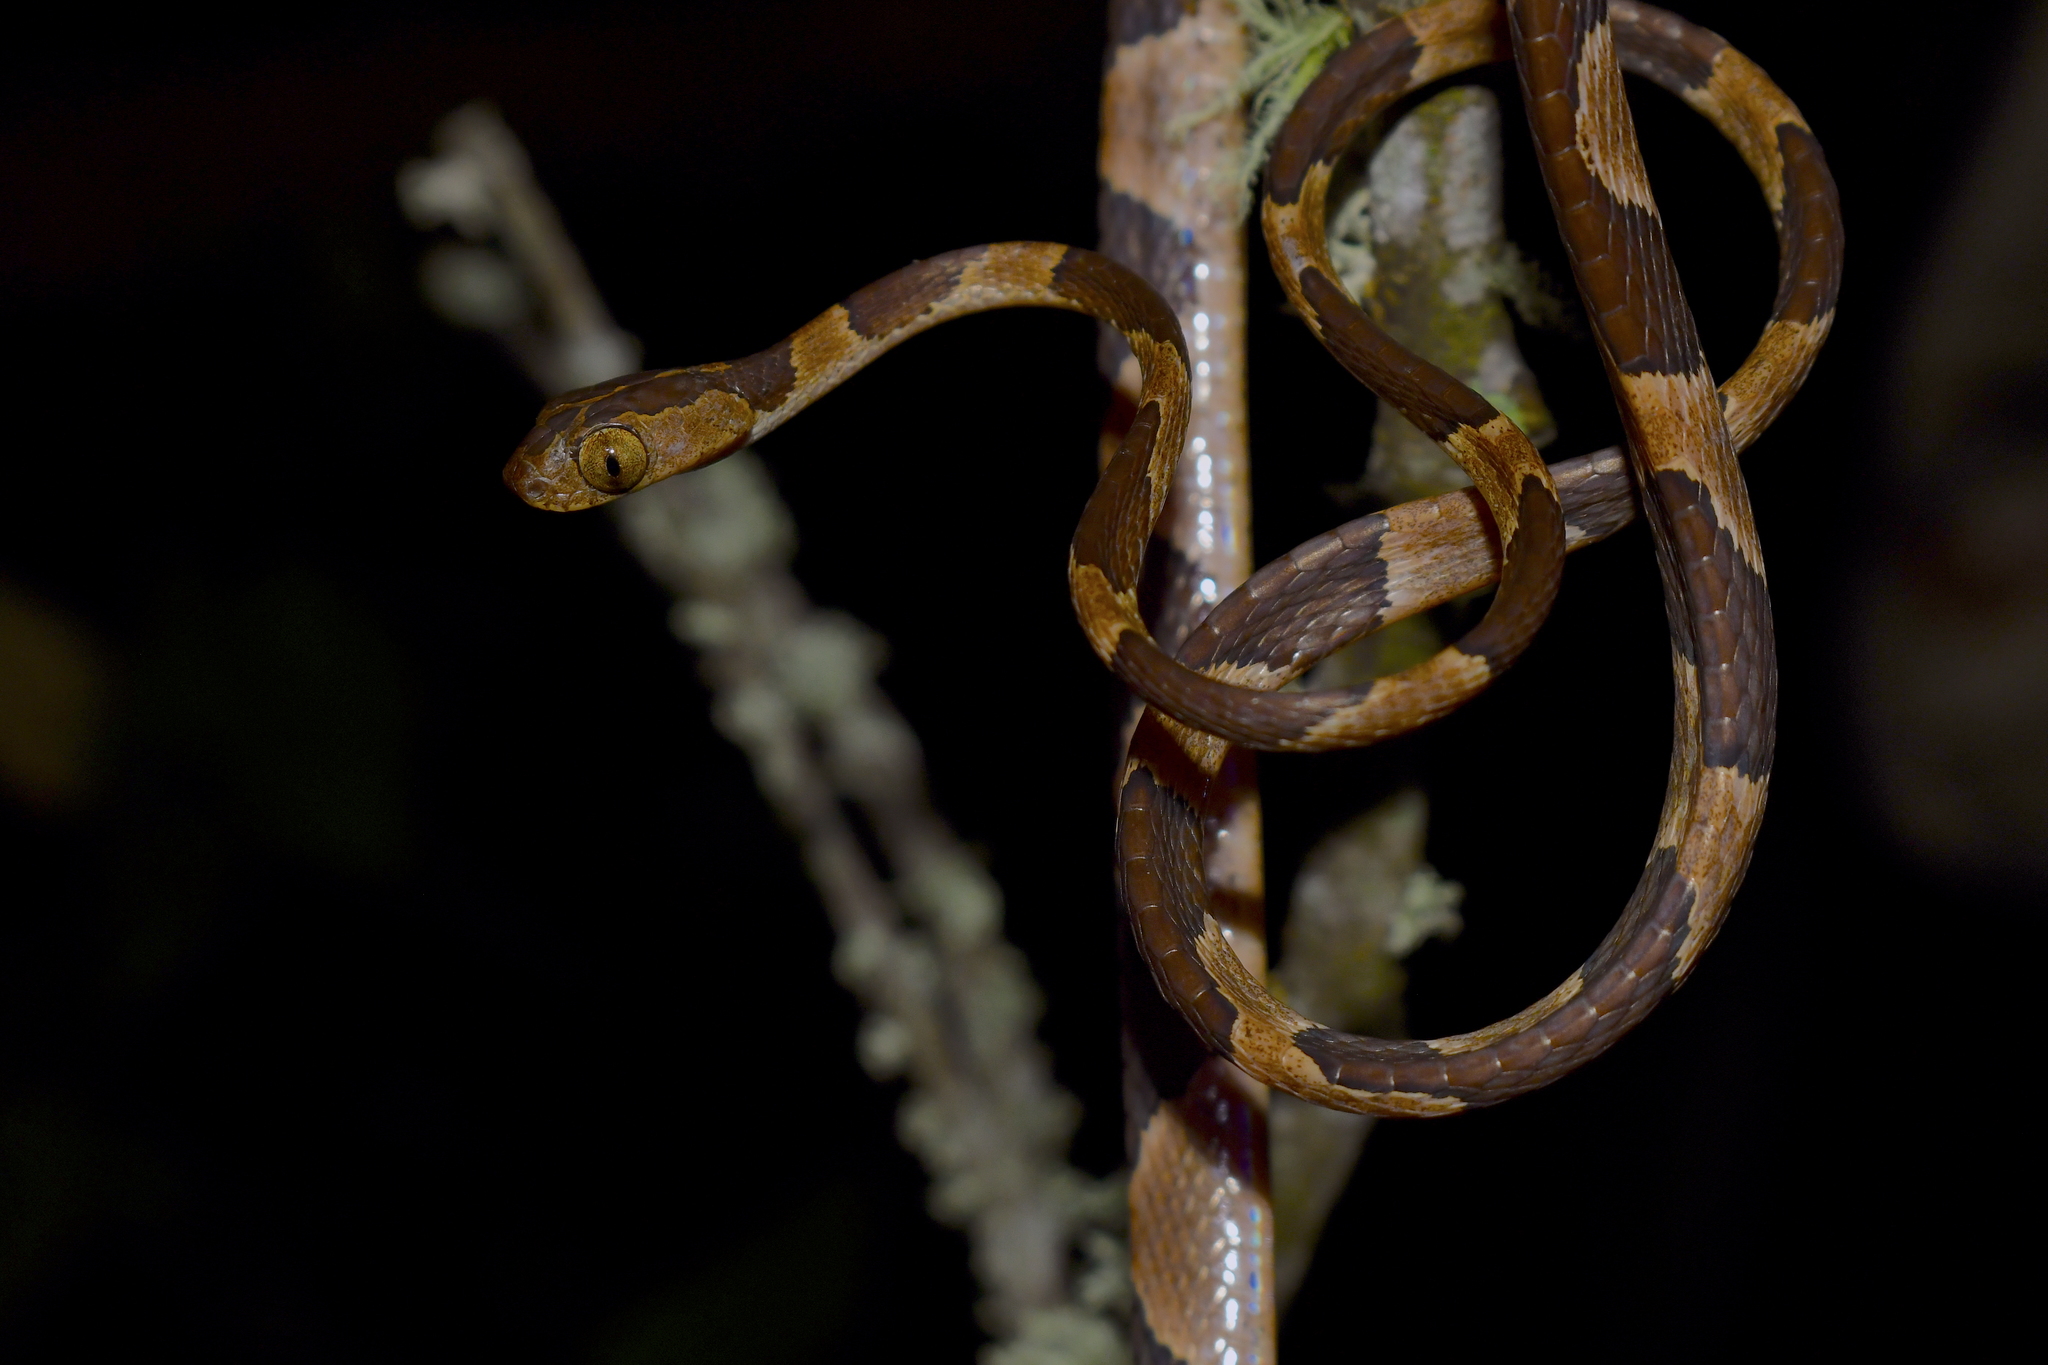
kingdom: Animalia
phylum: Chordata
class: Squamata
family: Colubridae
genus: Imantodes
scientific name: Imantodes cenchoa
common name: Blunthead tree snake
